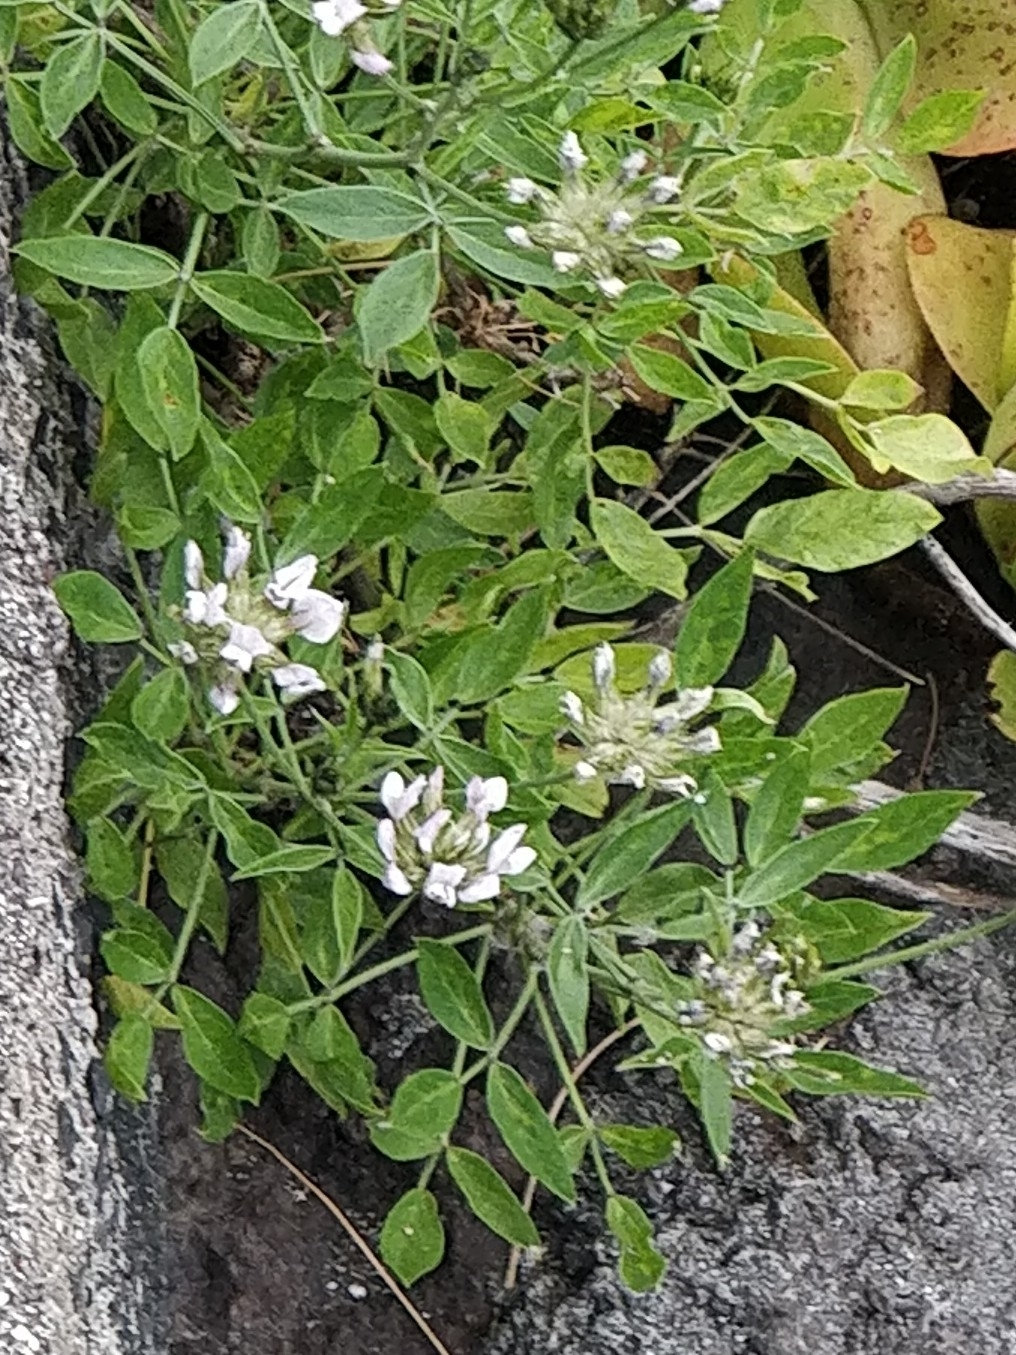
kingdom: Plantae
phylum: Tracheophyta
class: Magnoliopsida
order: Fabales
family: Fabaceae
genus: Bituminaria
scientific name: Bituminaria bituminosa
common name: Arabian pea
